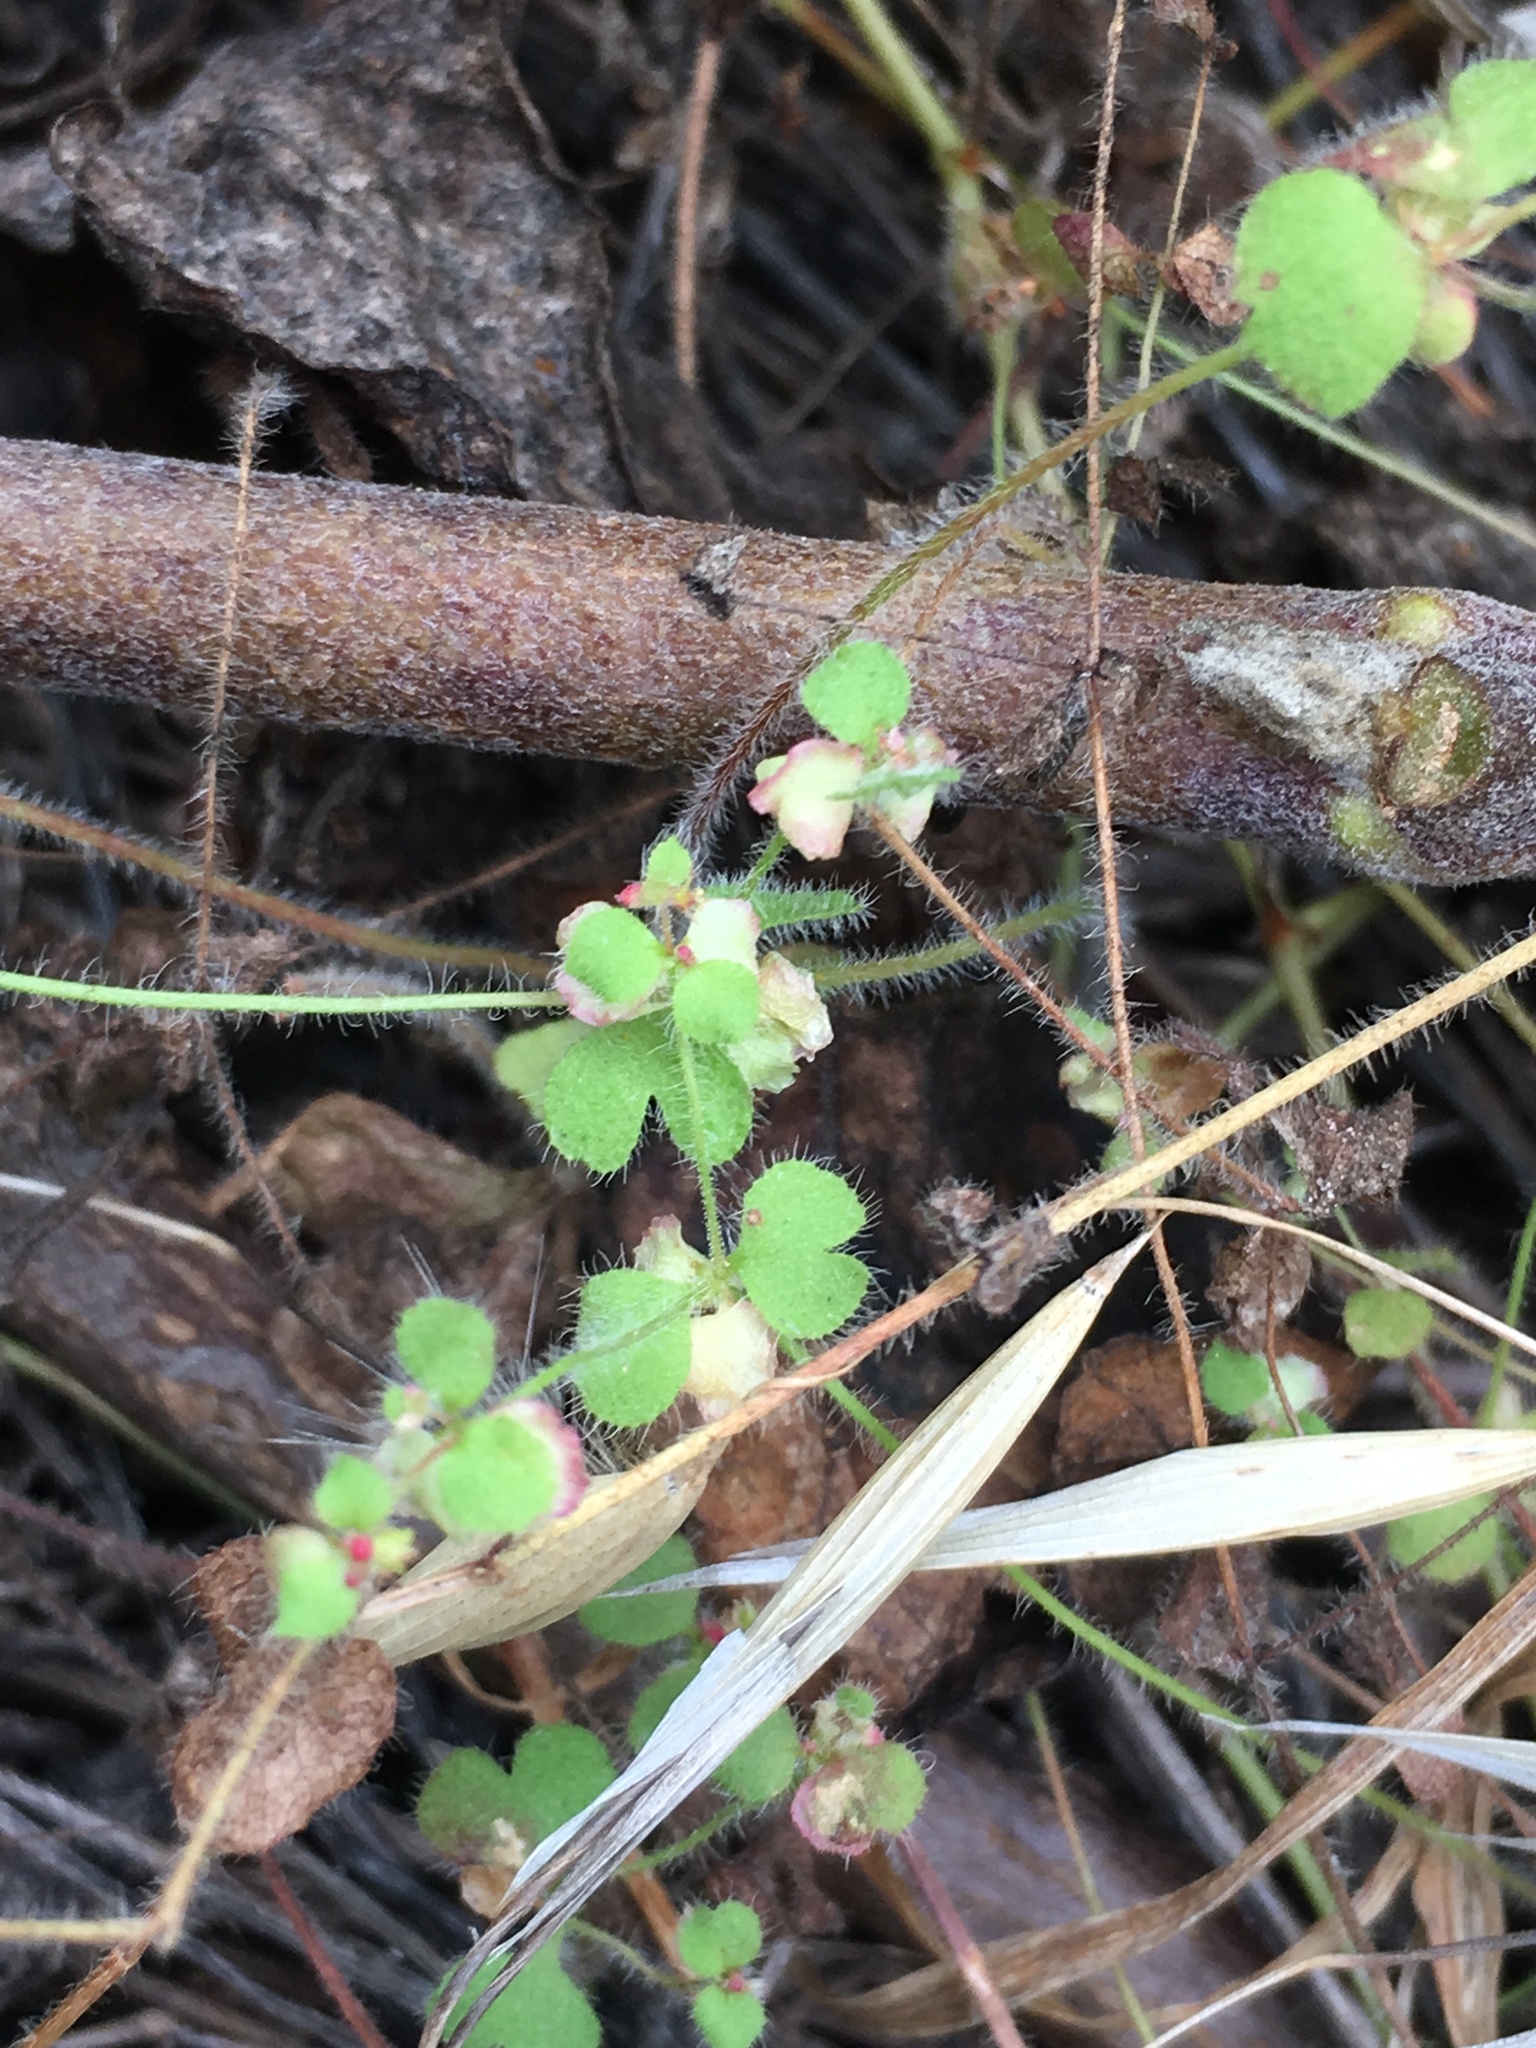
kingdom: Plantae
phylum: Tracheophyta
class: Magnoliopsida
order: Caryophyllales
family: Polygonaceae
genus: Pterostegia
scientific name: Pterostegia drymarioides
